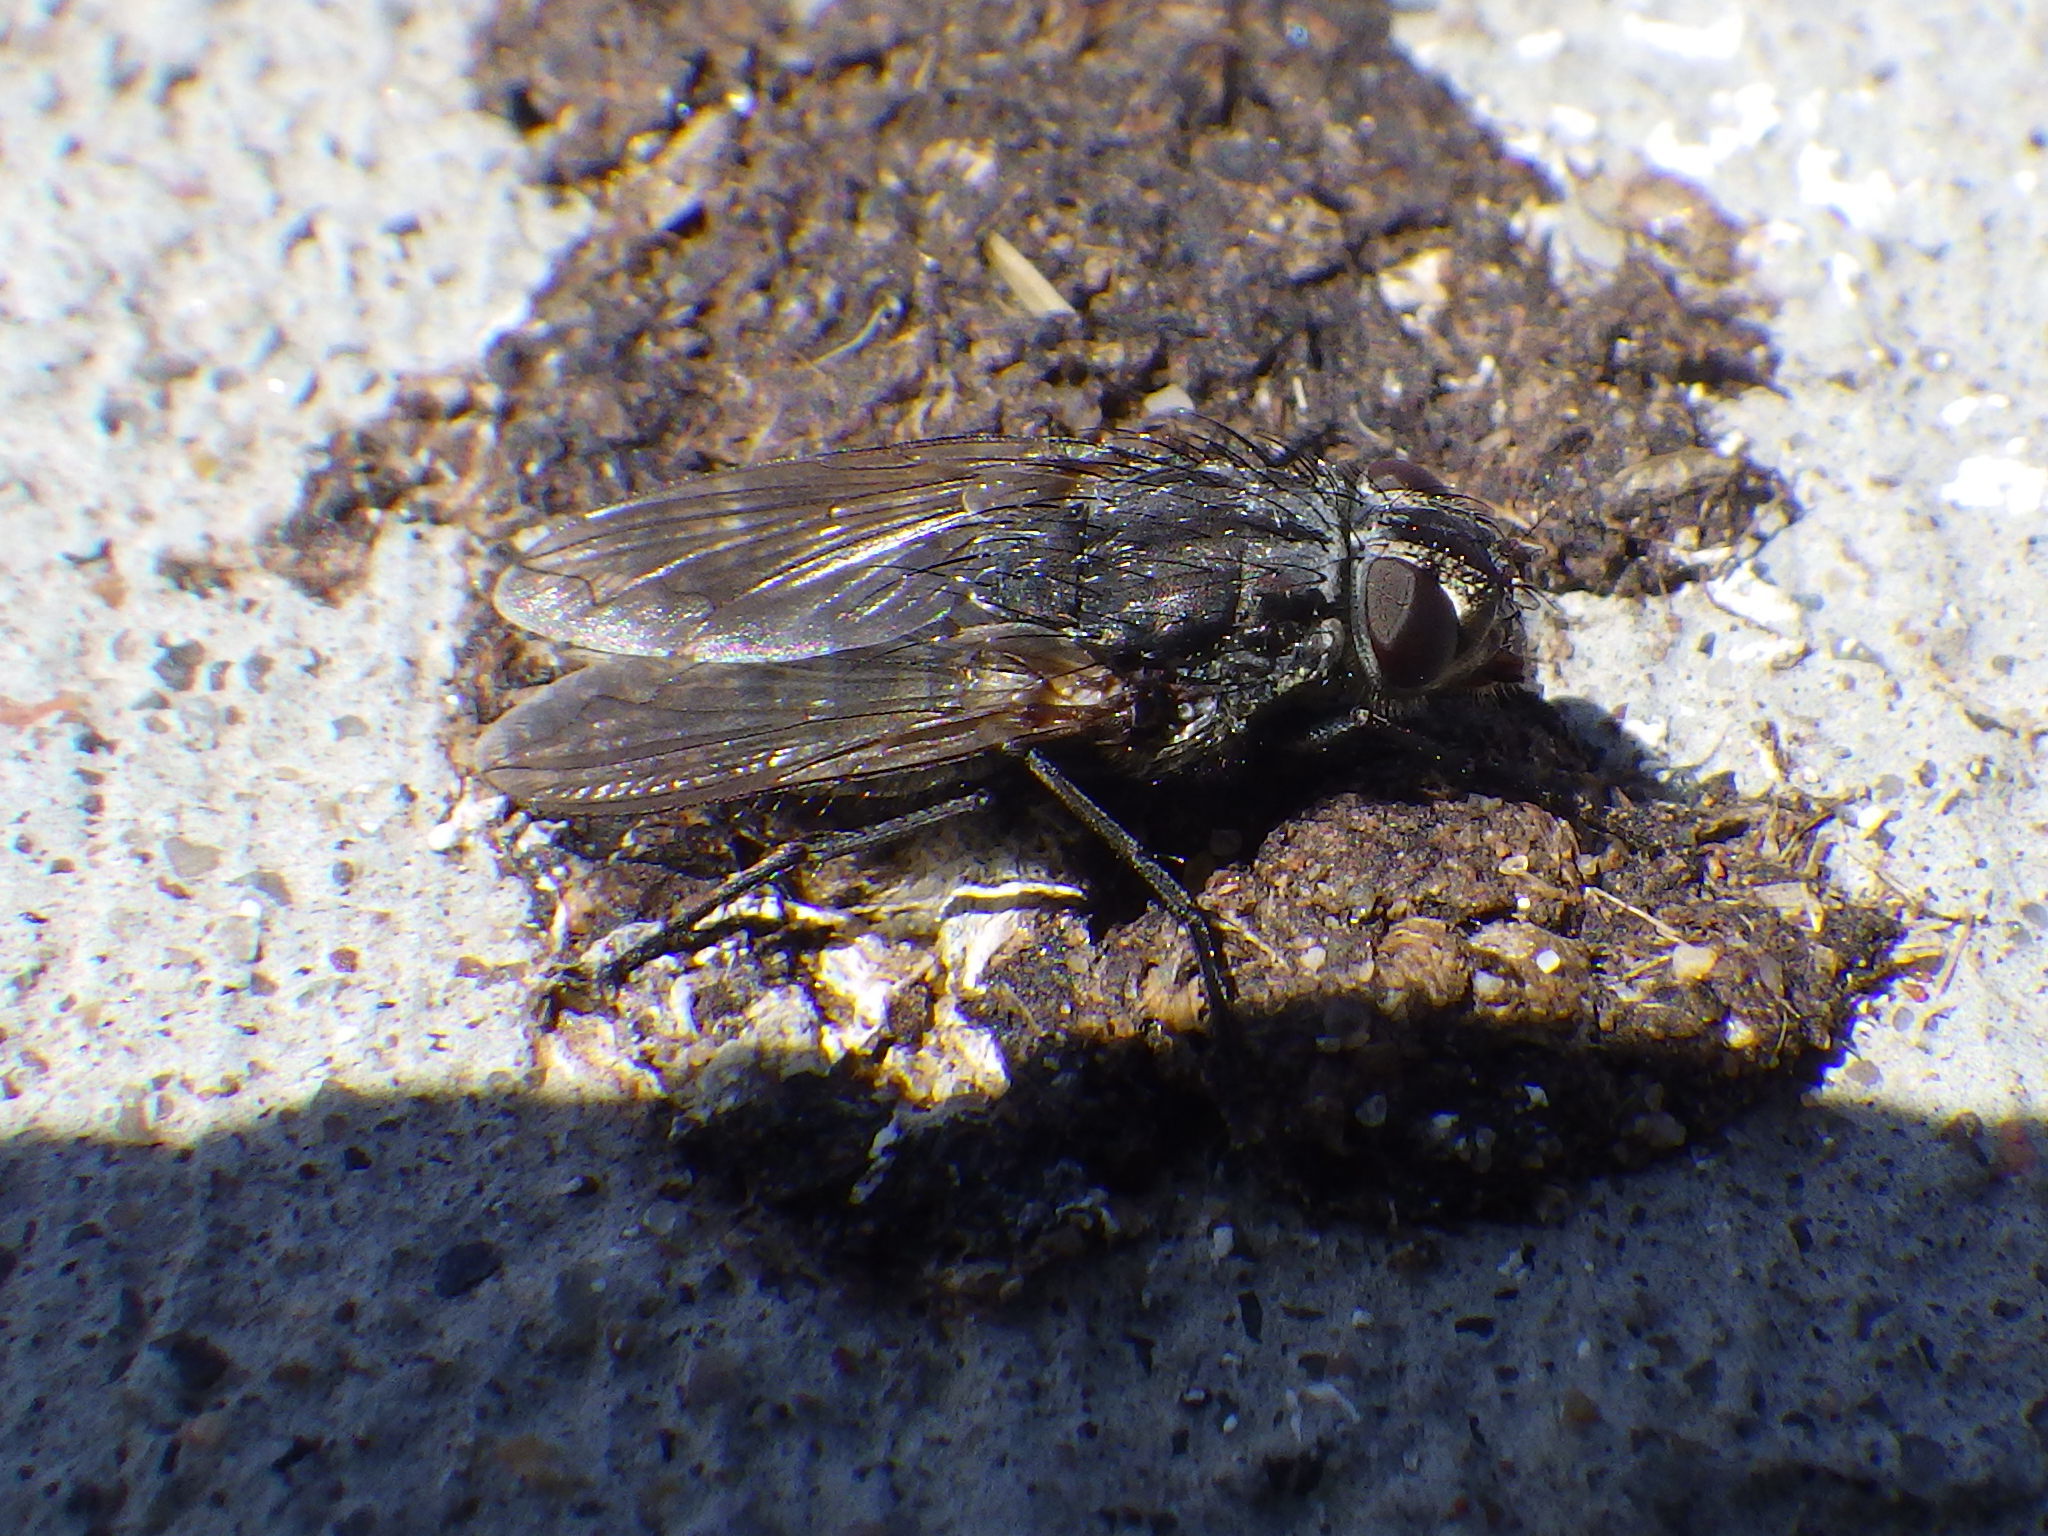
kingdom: Animalia
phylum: Arthropoda
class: Insecta
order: Diptera
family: Polleniidae
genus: Pollenia
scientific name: Pollenia vagabunda
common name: Vagabund cluster fly
